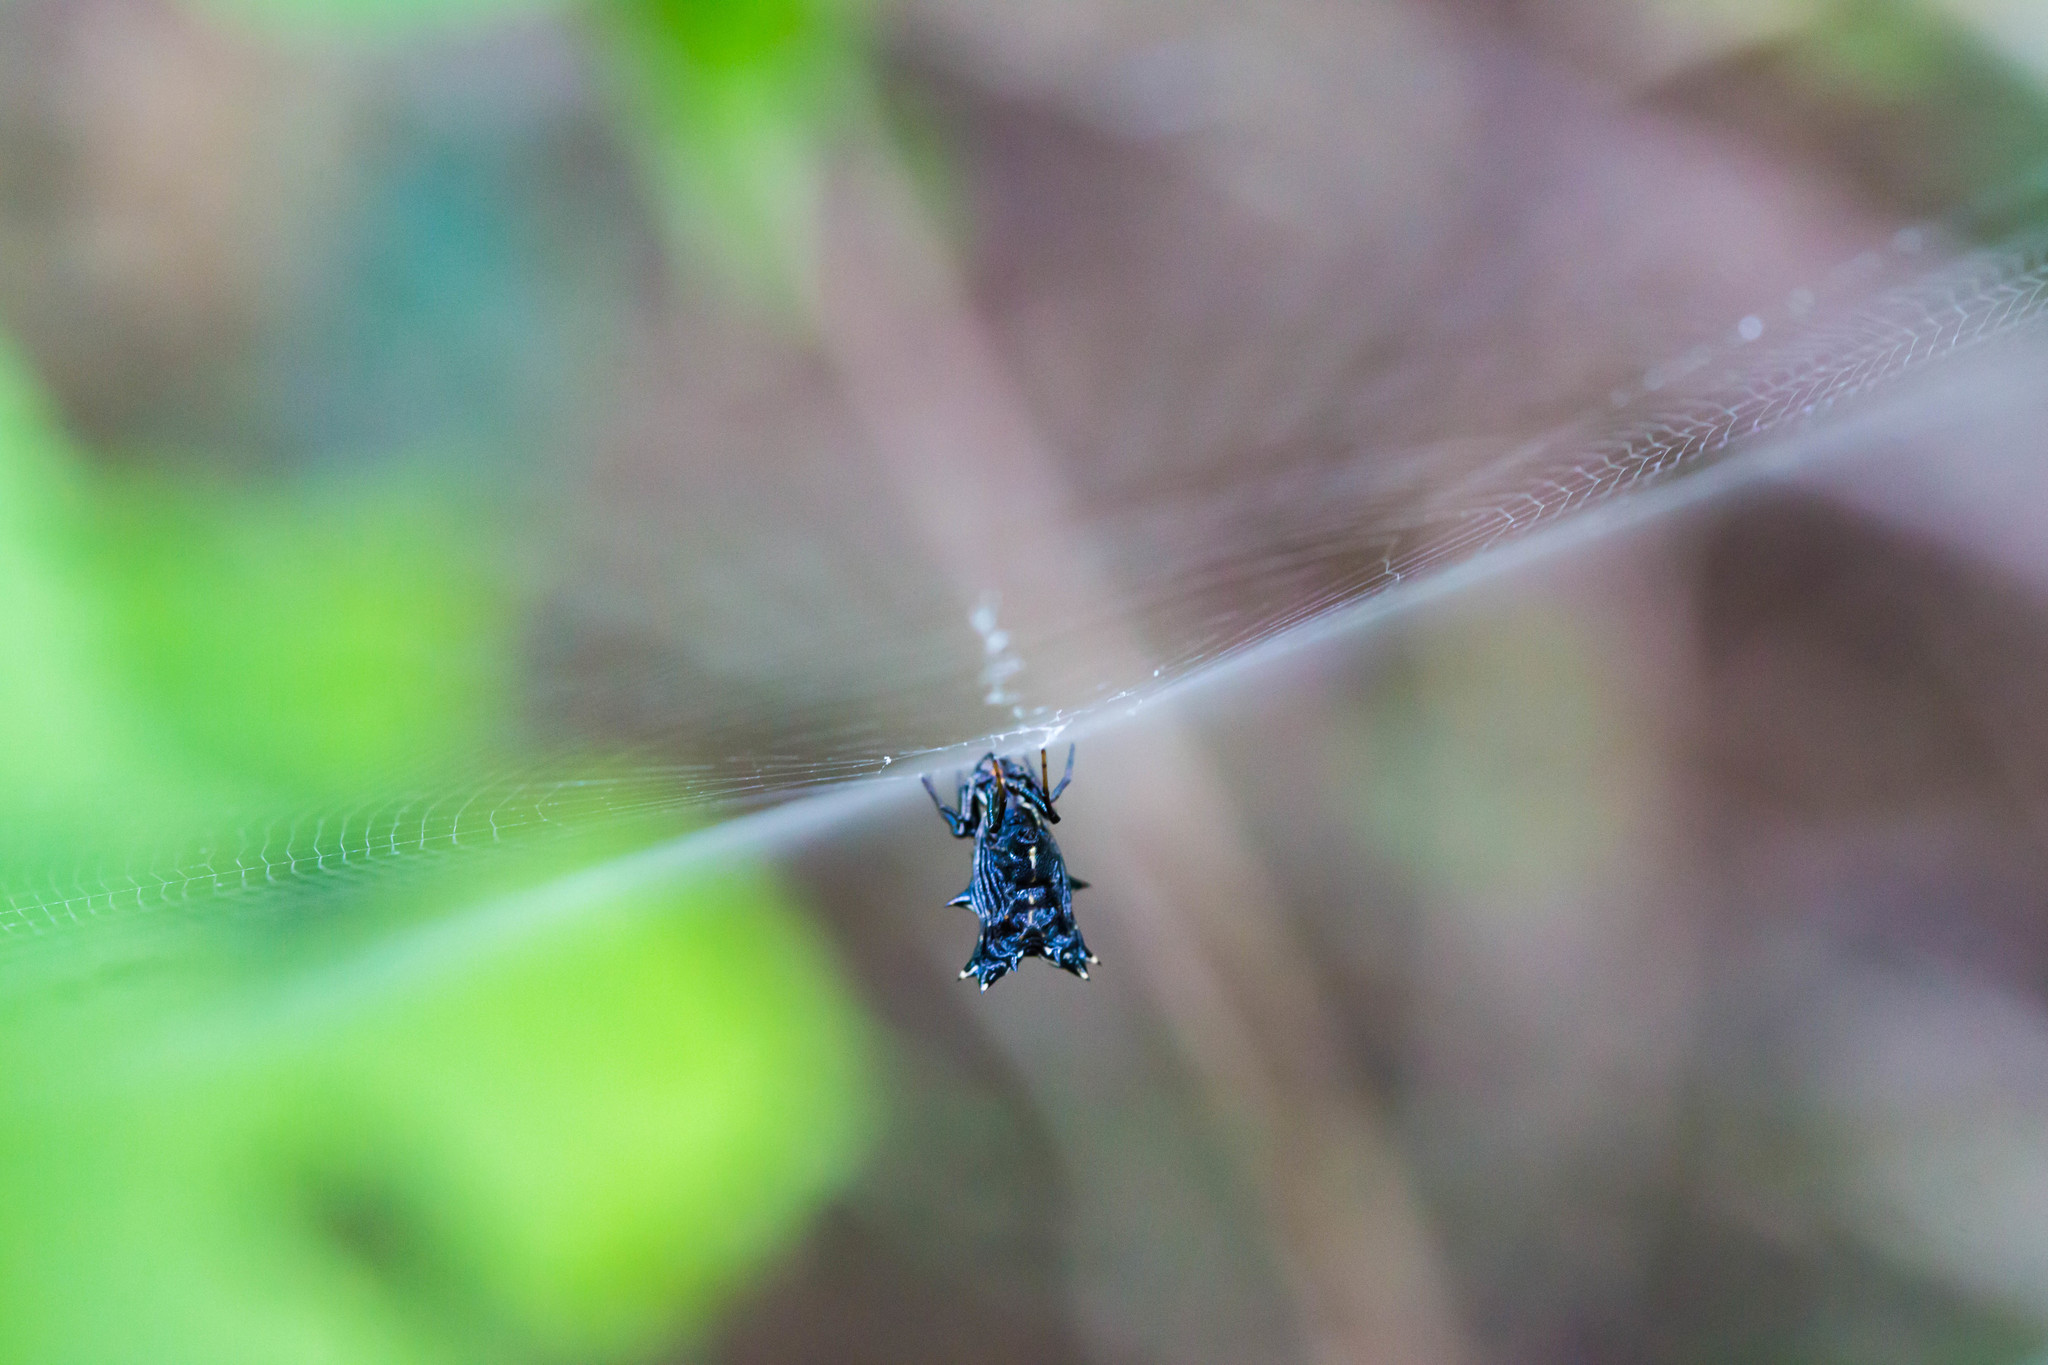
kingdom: Animalia
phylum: Arthropoda
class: Arachnida
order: Araneae
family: Araneidae
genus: Micrathena
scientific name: Micrathena gracilis
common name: Orb weavers
